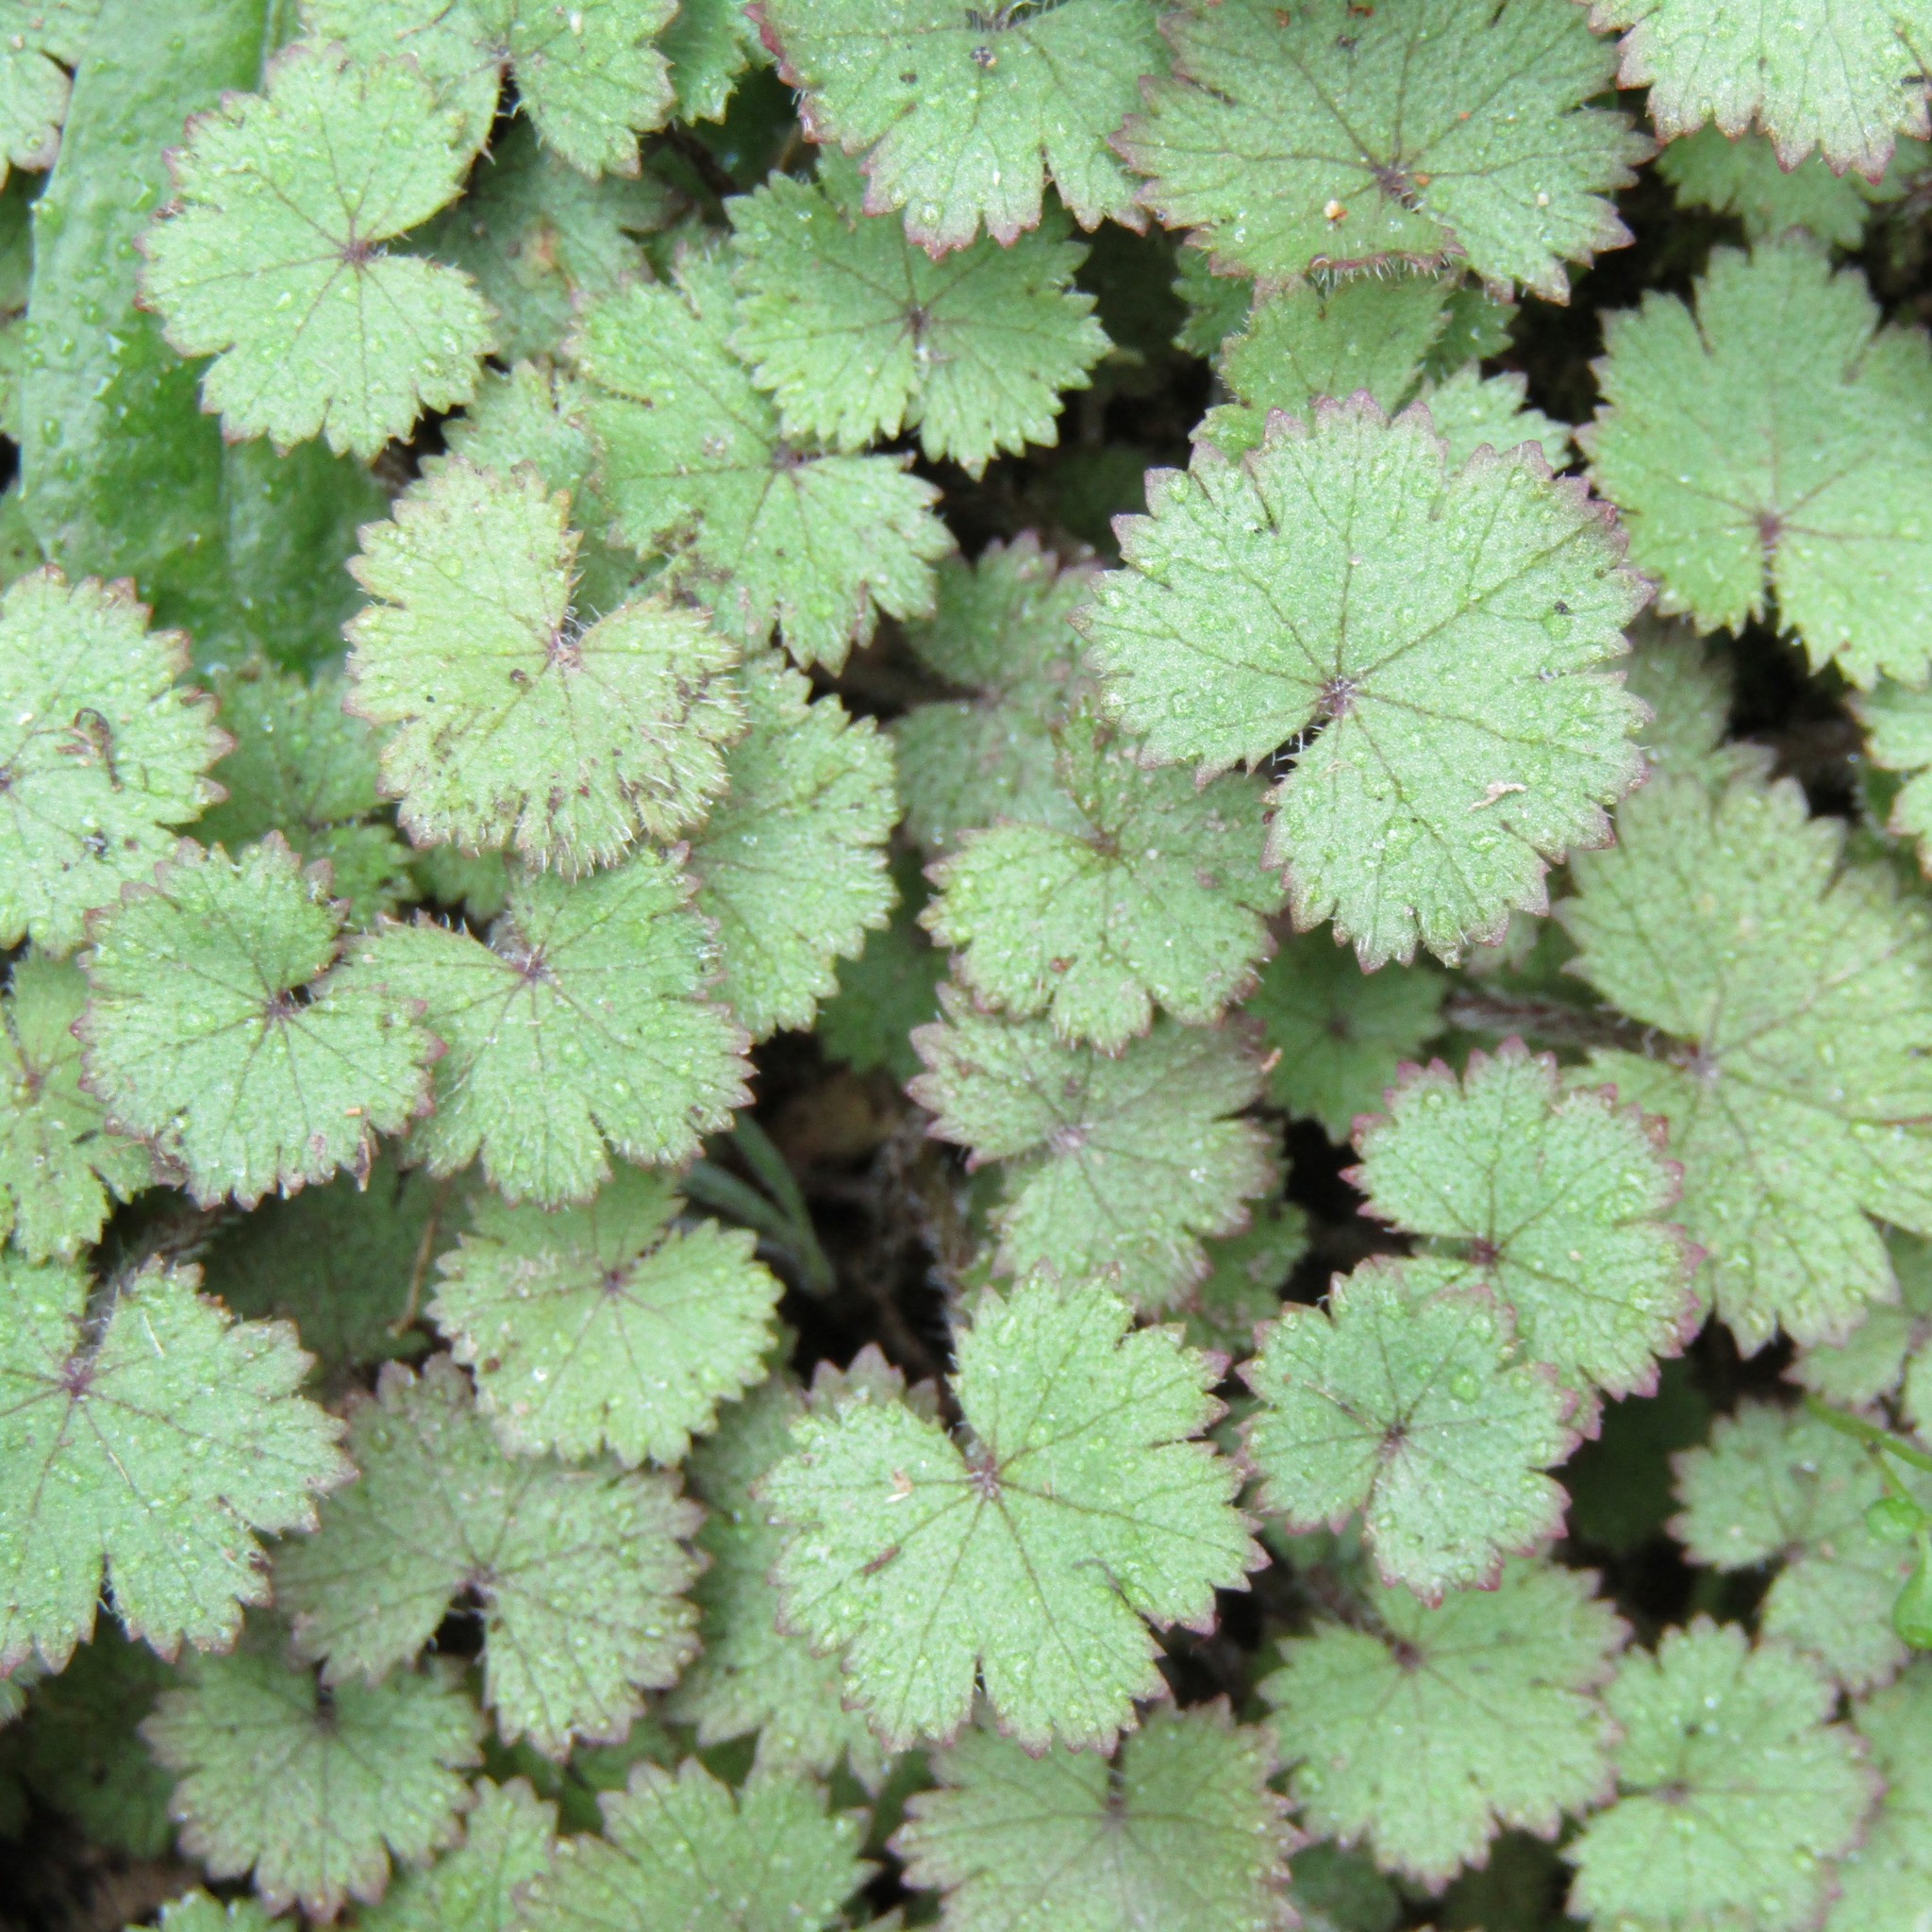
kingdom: Plantae
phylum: Tracheophyta
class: Magnoliopsida
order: Apiales
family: Araliaceae
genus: Hydrocotyle
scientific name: Hydrocotyle moschata
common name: Hairy pennywort
